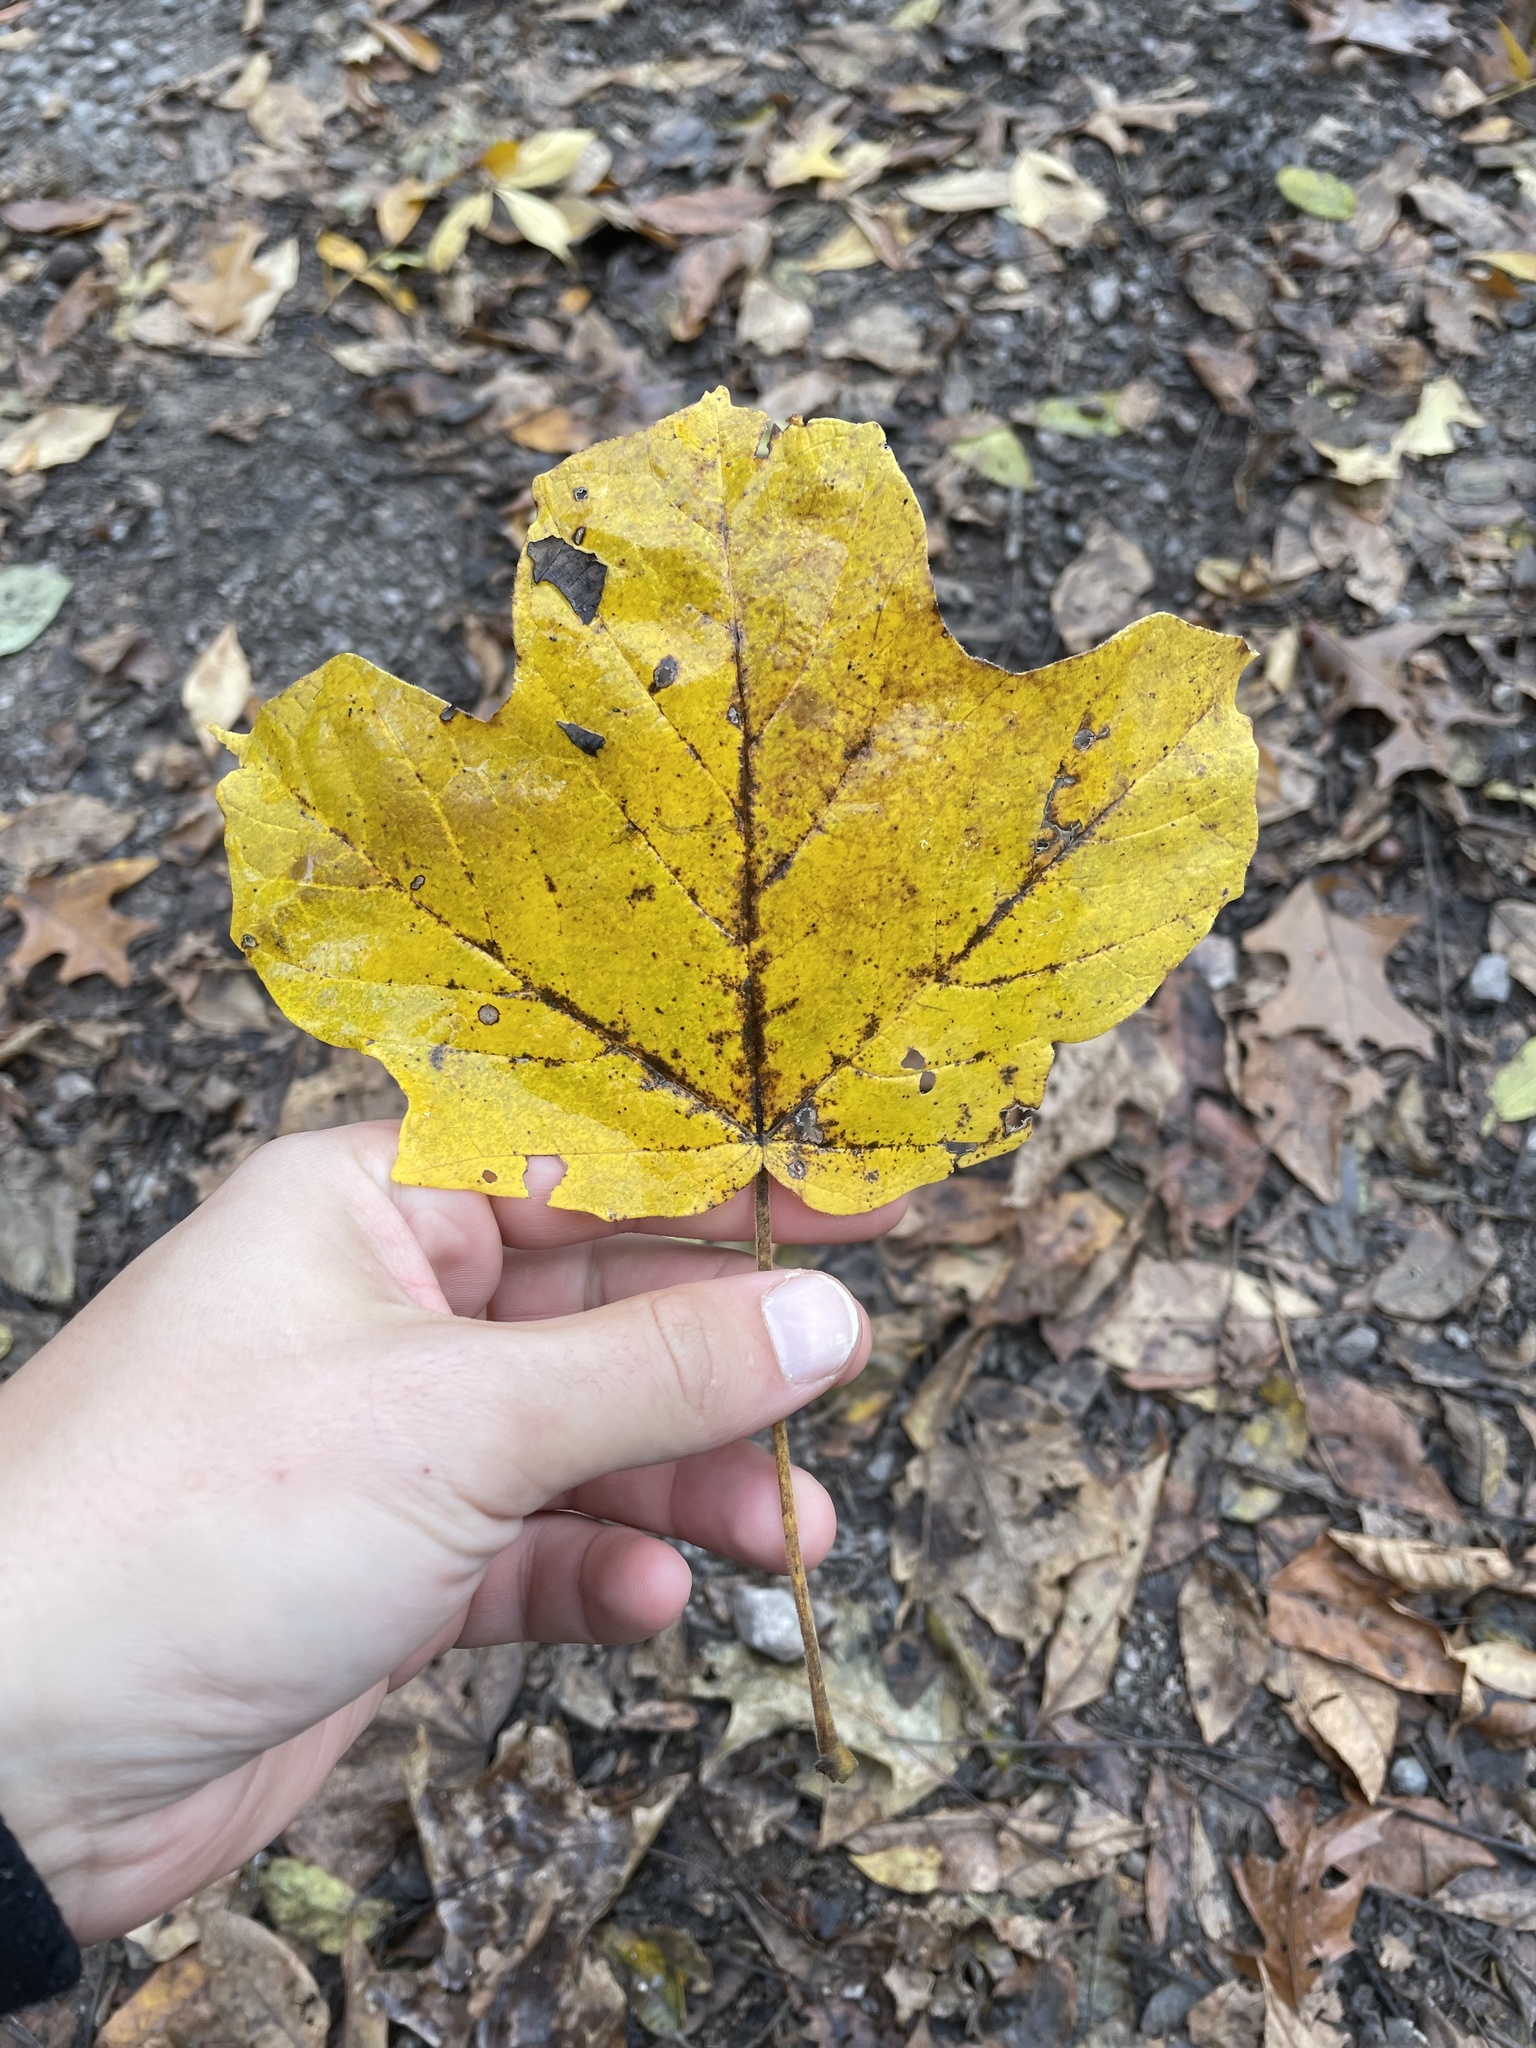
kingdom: Plantae
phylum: Tracheophyta
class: Magnoliopsida
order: Sapindales
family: Sapindaceae
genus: Acer
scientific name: Acer nigrum
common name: Black maple
